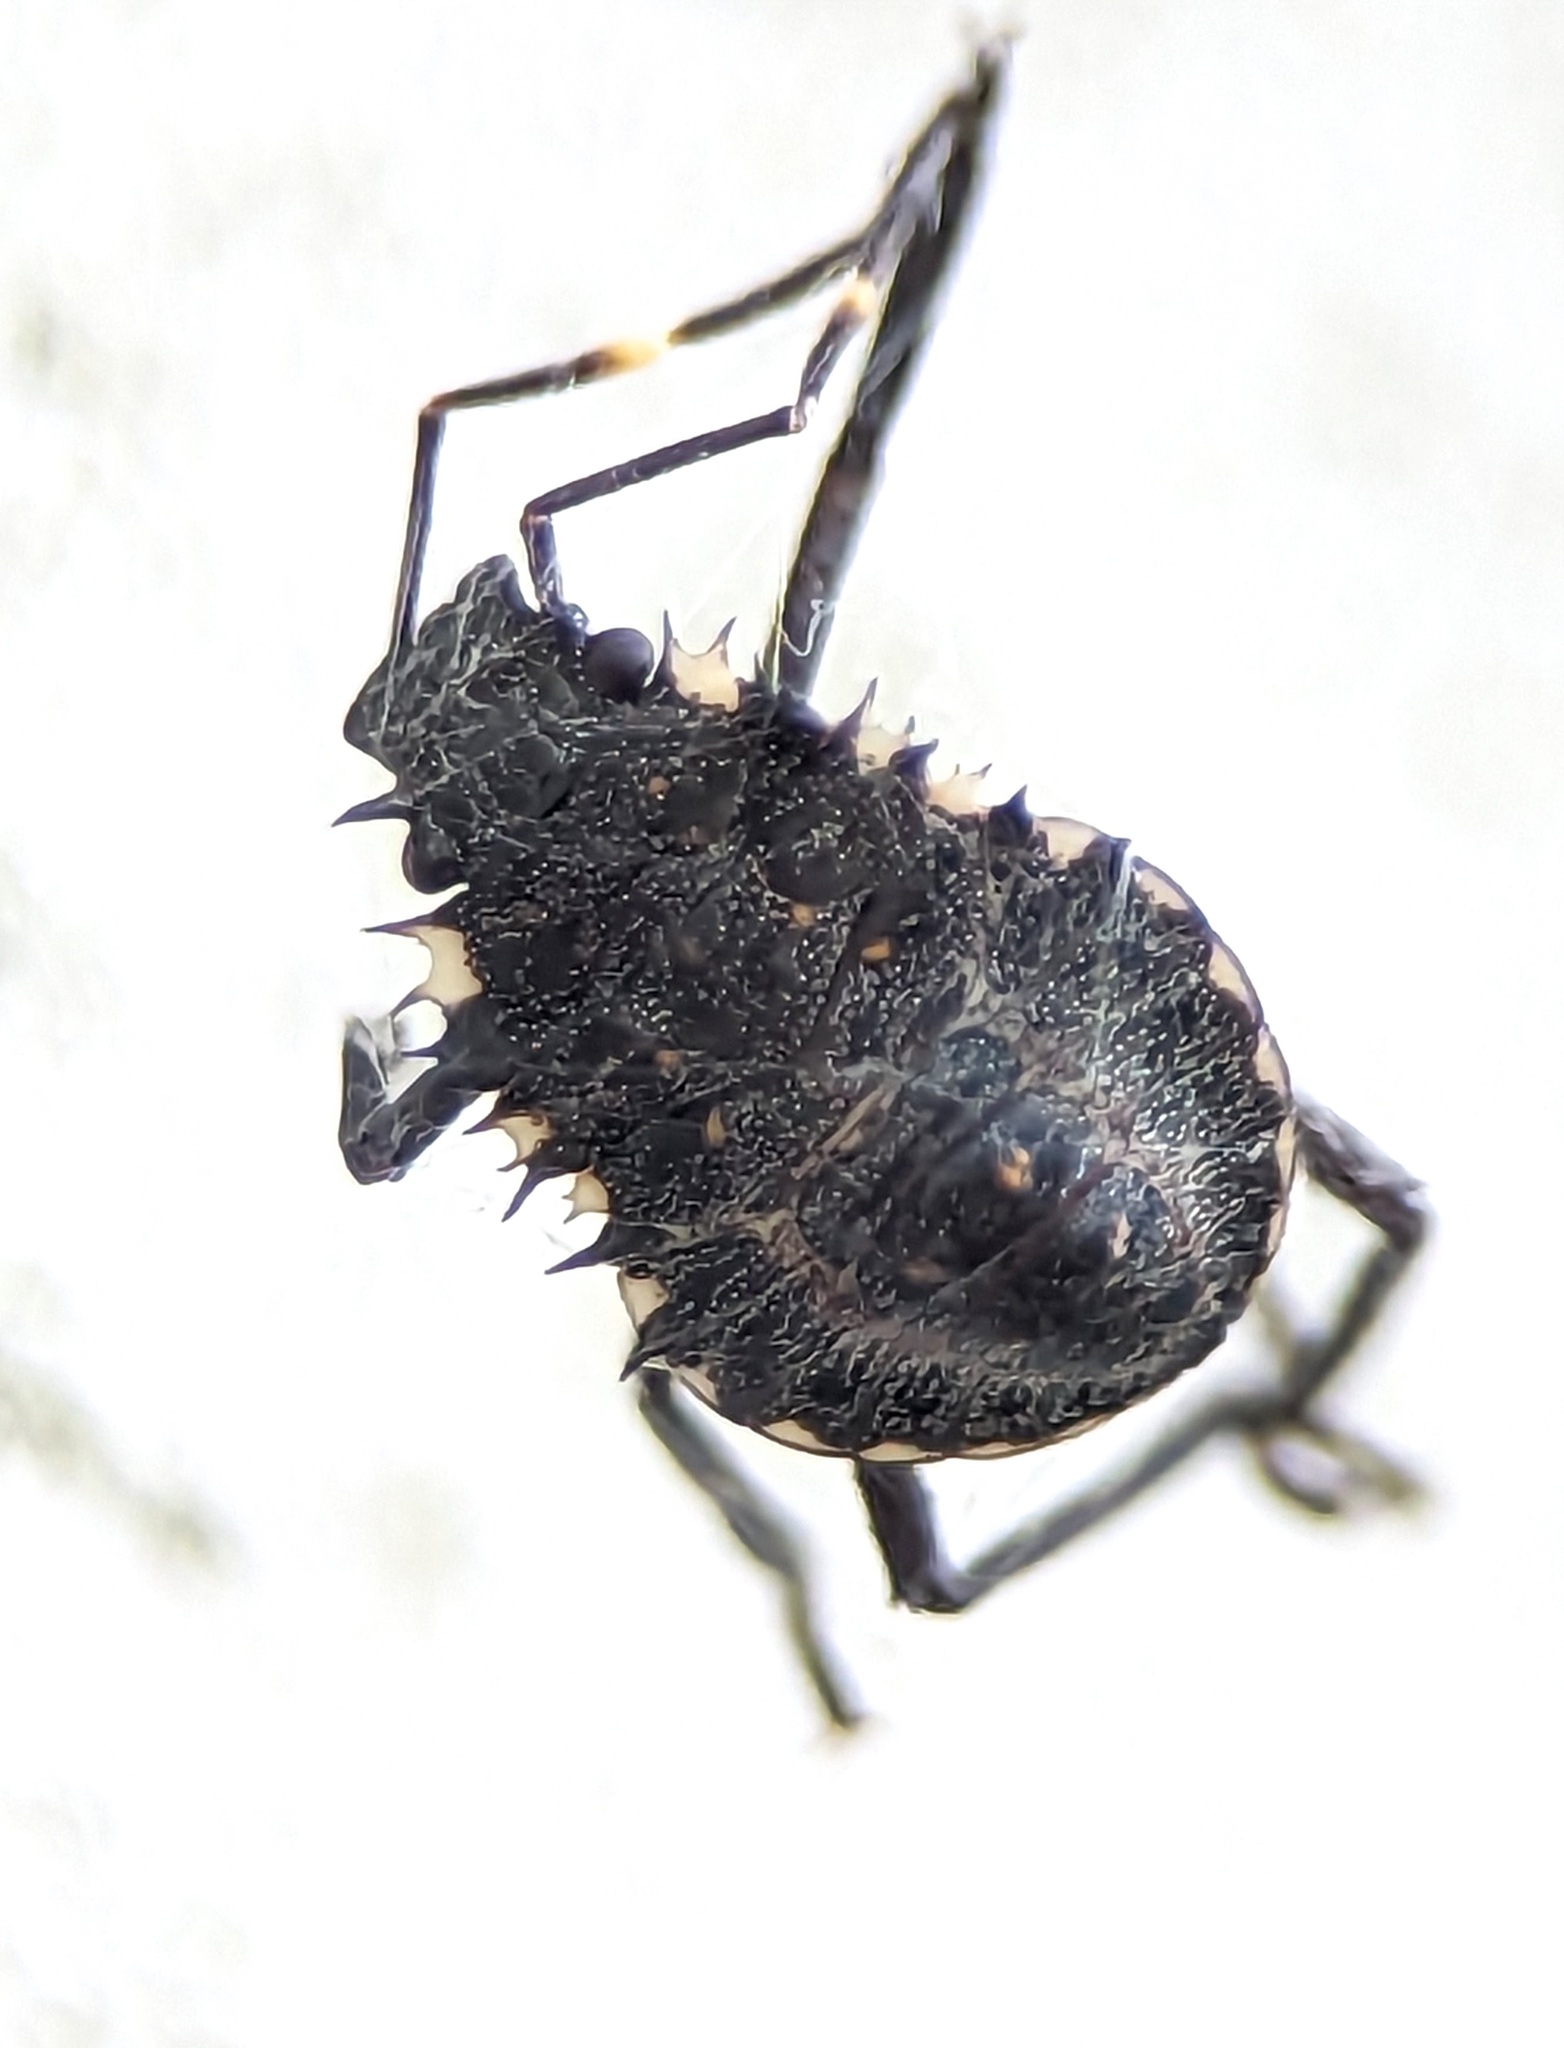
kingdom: Animalia
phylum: Arthropoda
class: Insecta
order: Hemiptera
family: Pentatomidae
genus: Halyomorpha
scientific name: Halyomorpha halys
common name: Brown marmorated stink bug
